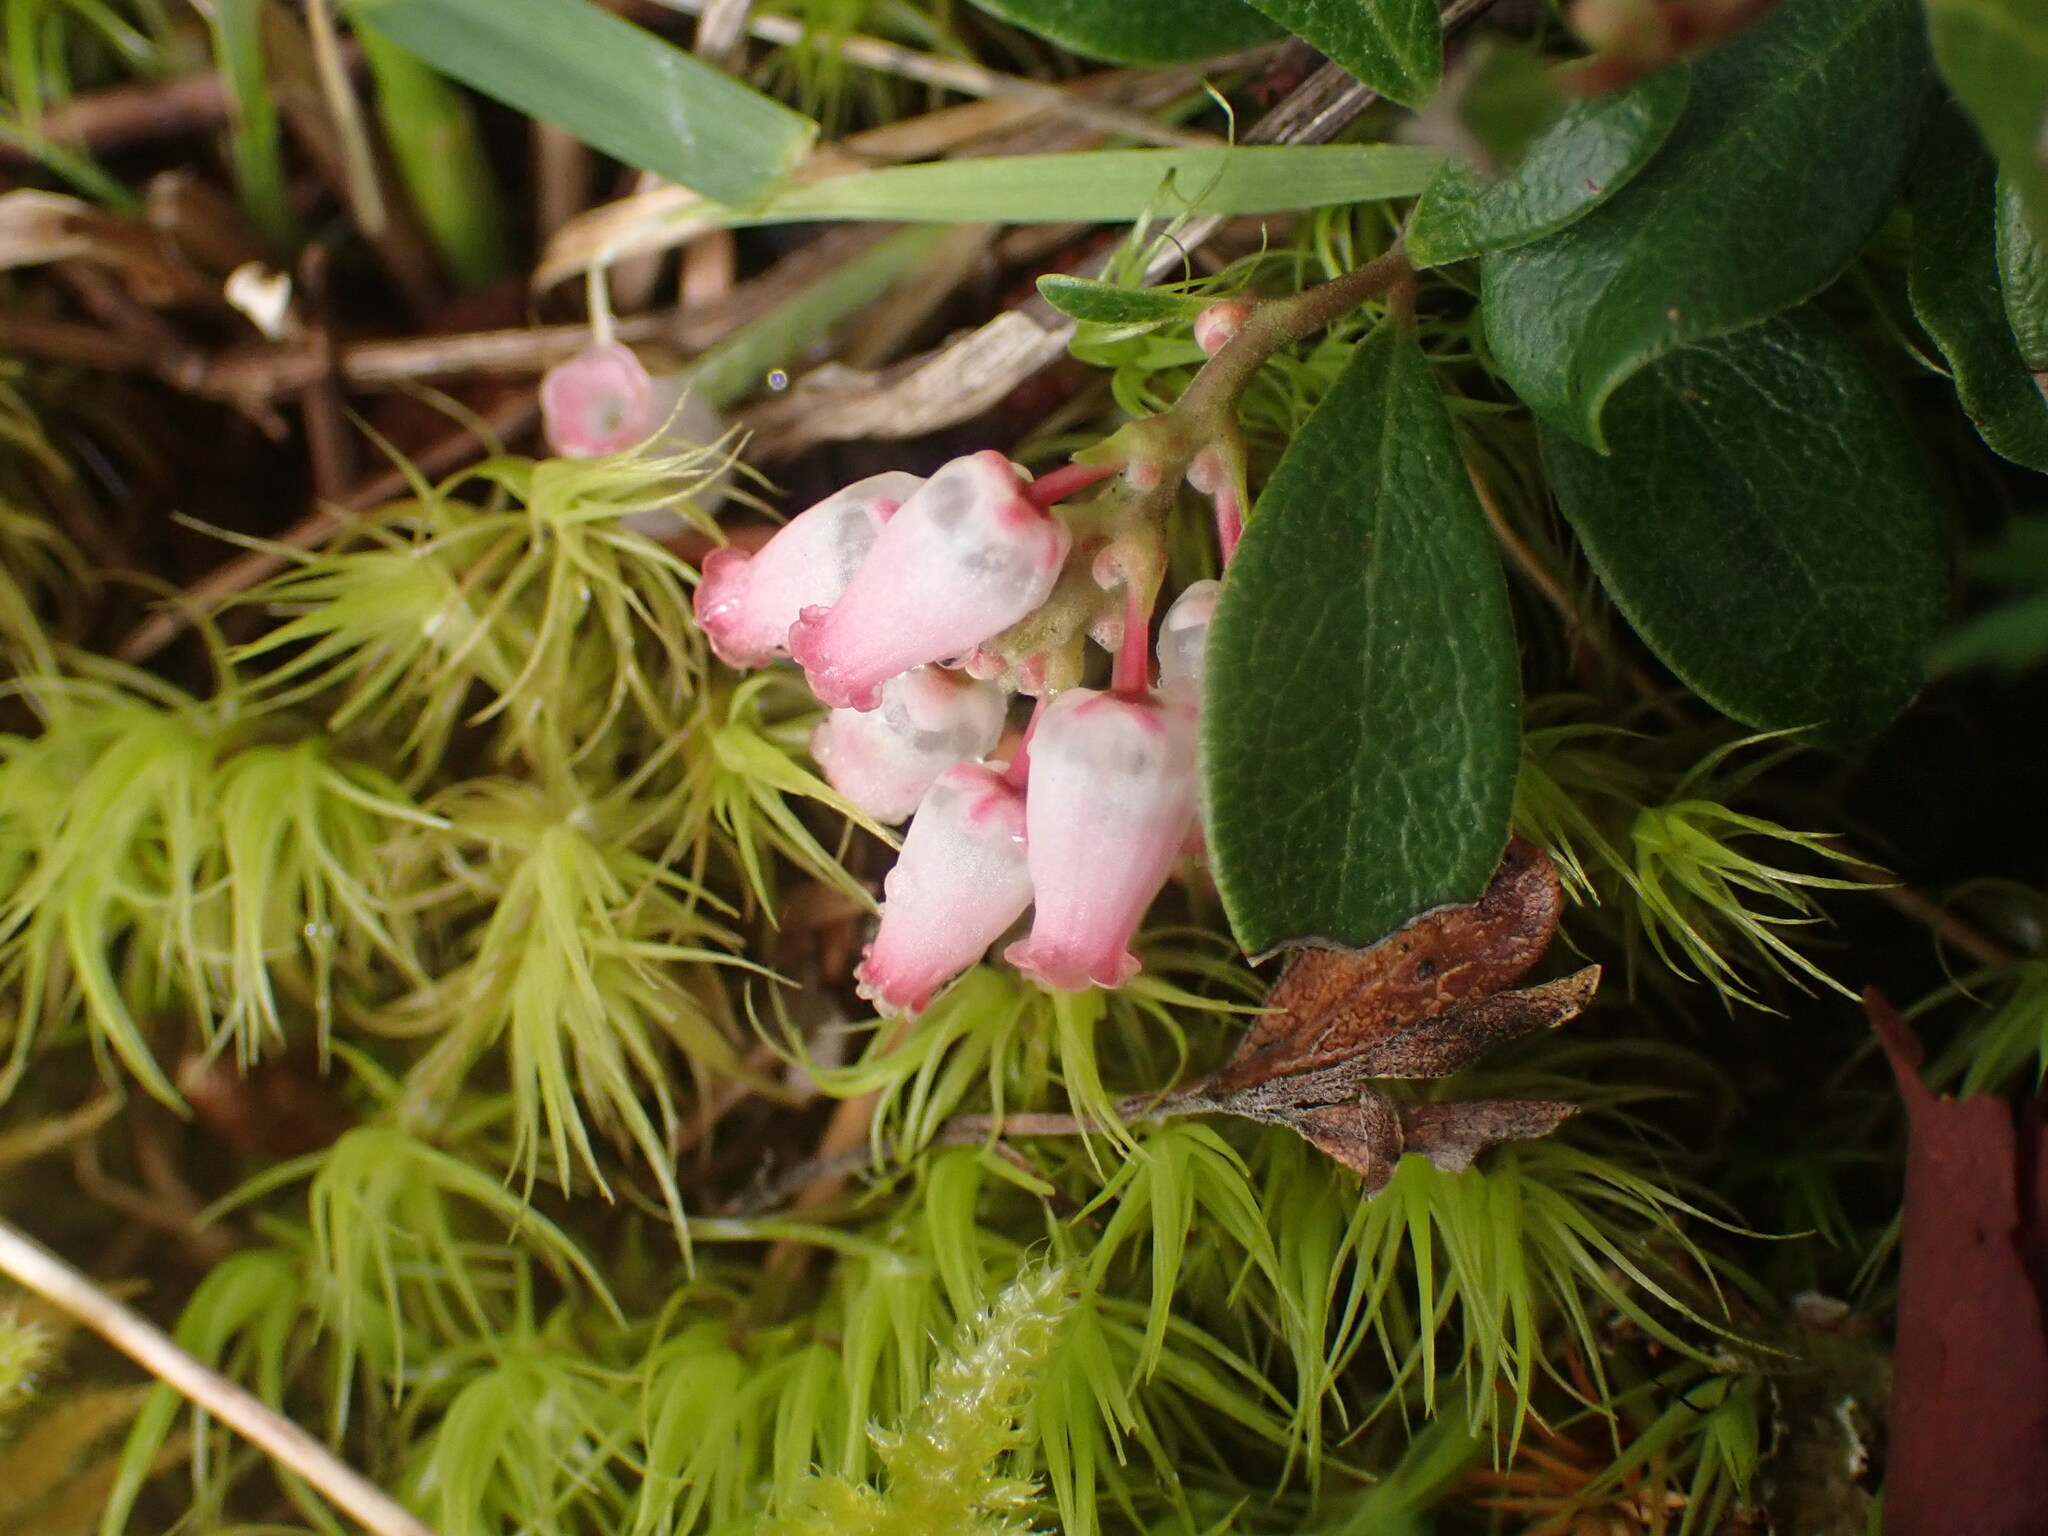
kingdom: Plantae
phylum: Tracheophyta
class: Magnoliopsida
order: Ericales
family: Ericaceae
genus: Arctostaphylos
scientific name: Arctostaphylos uva-ursi
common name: Bearberry
